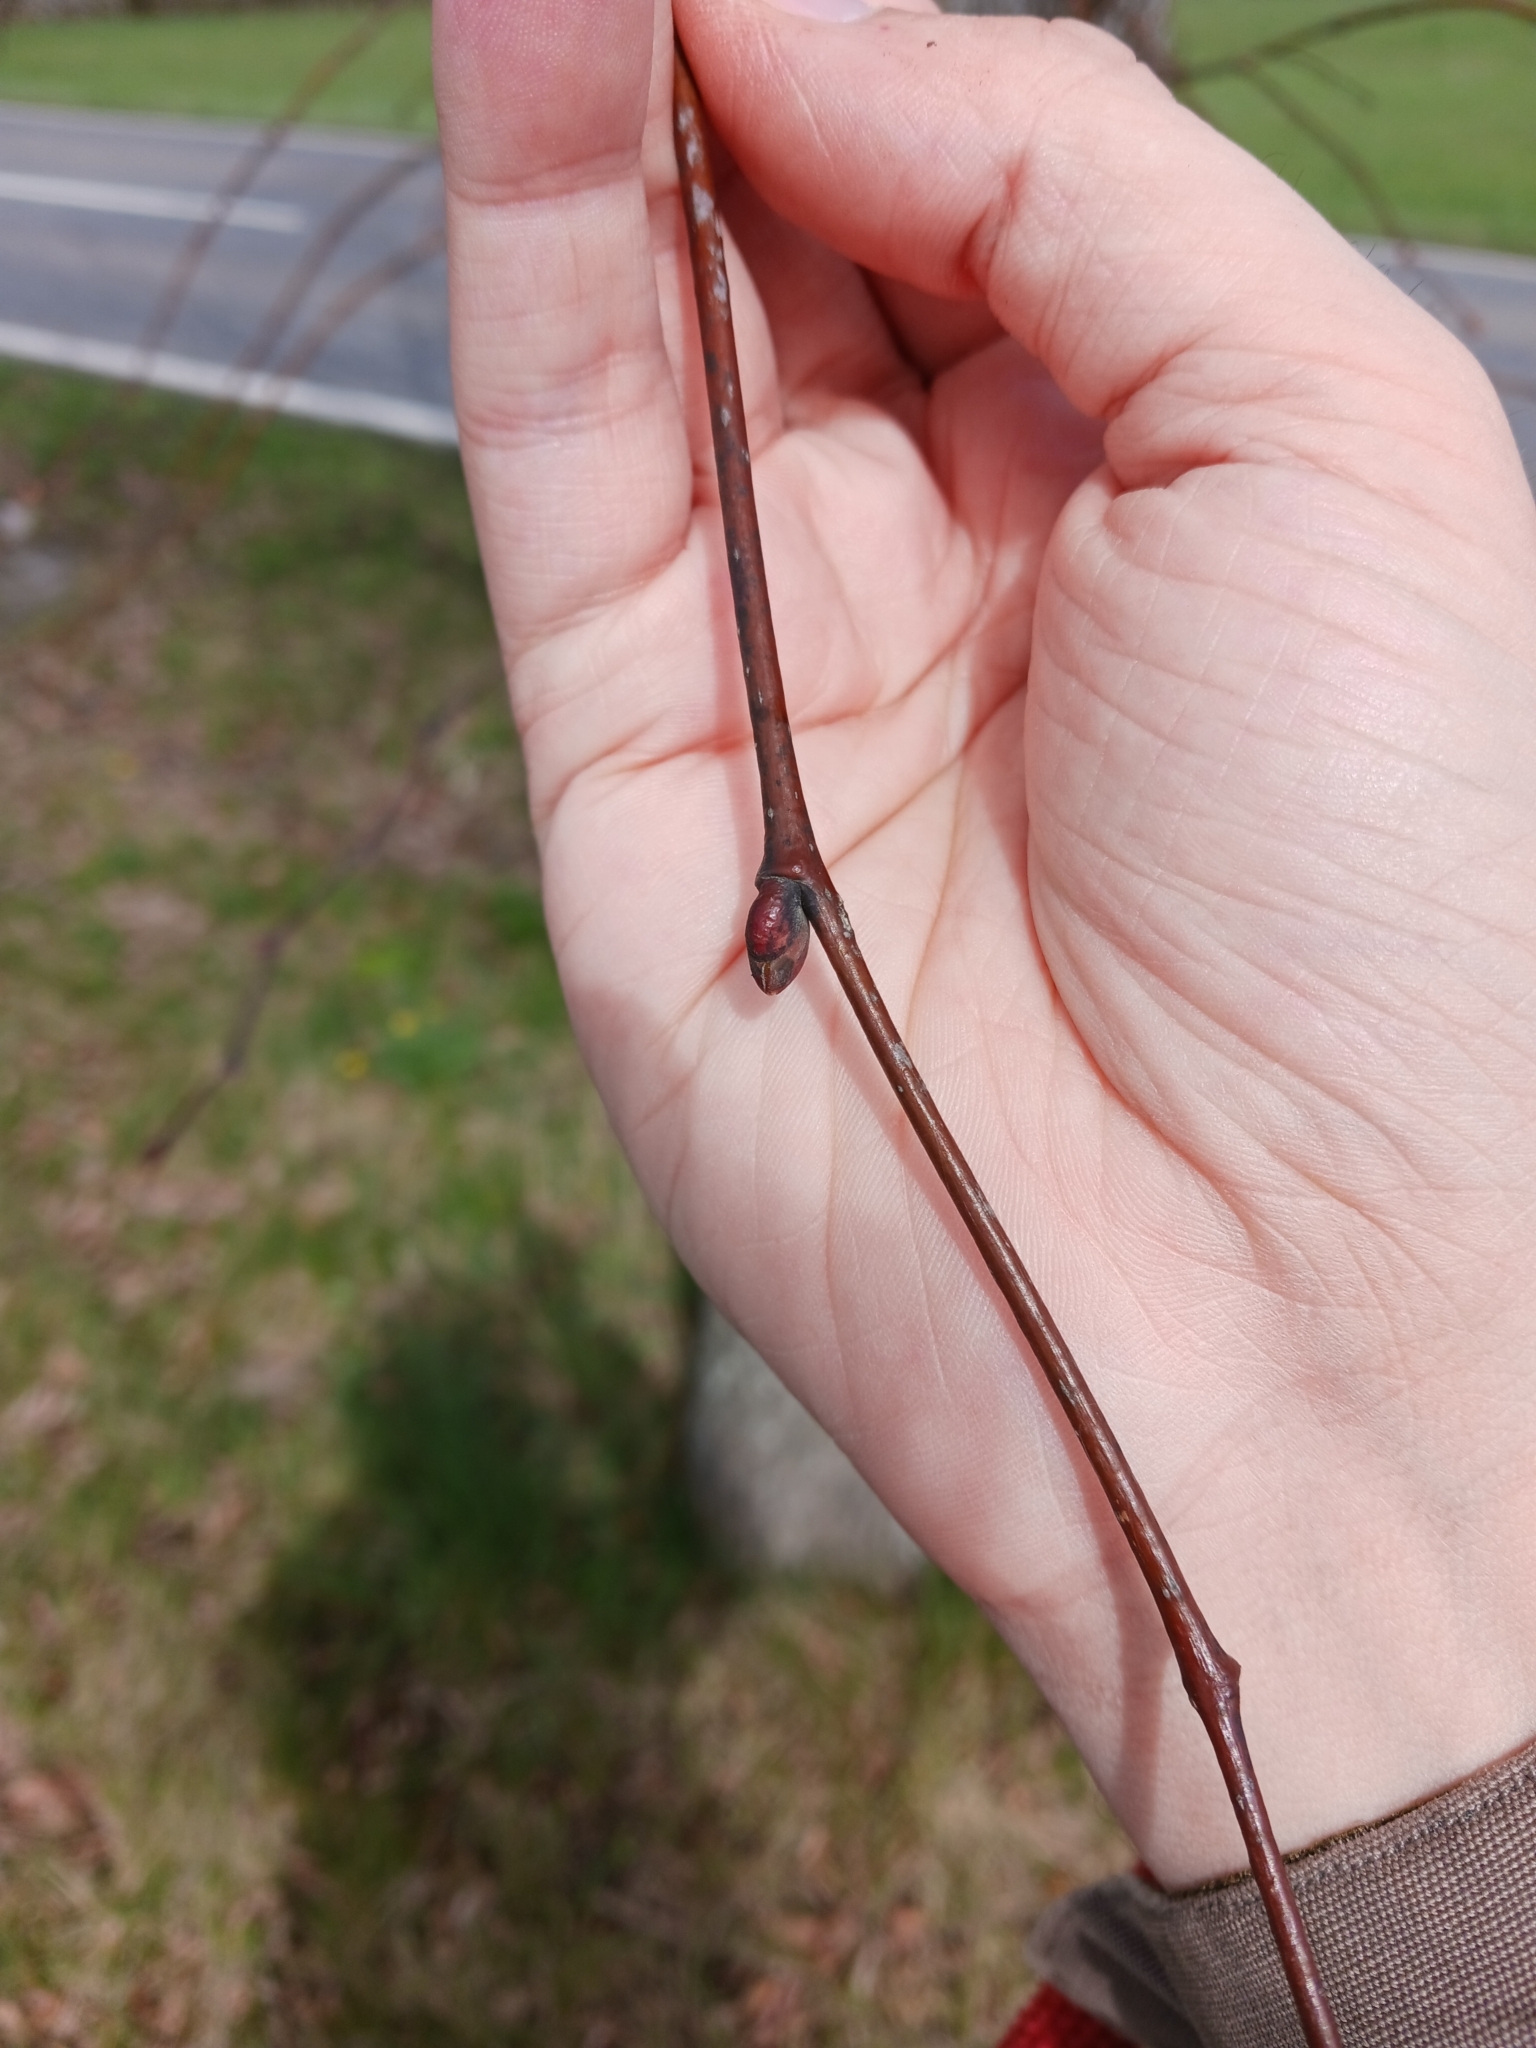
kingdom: Fungi
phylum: Basidiomycota
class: Agaricomycetes
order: Agaricales
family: Cortinariaceae
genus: Cortinarius
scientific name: Cortinarius suberythrinus
